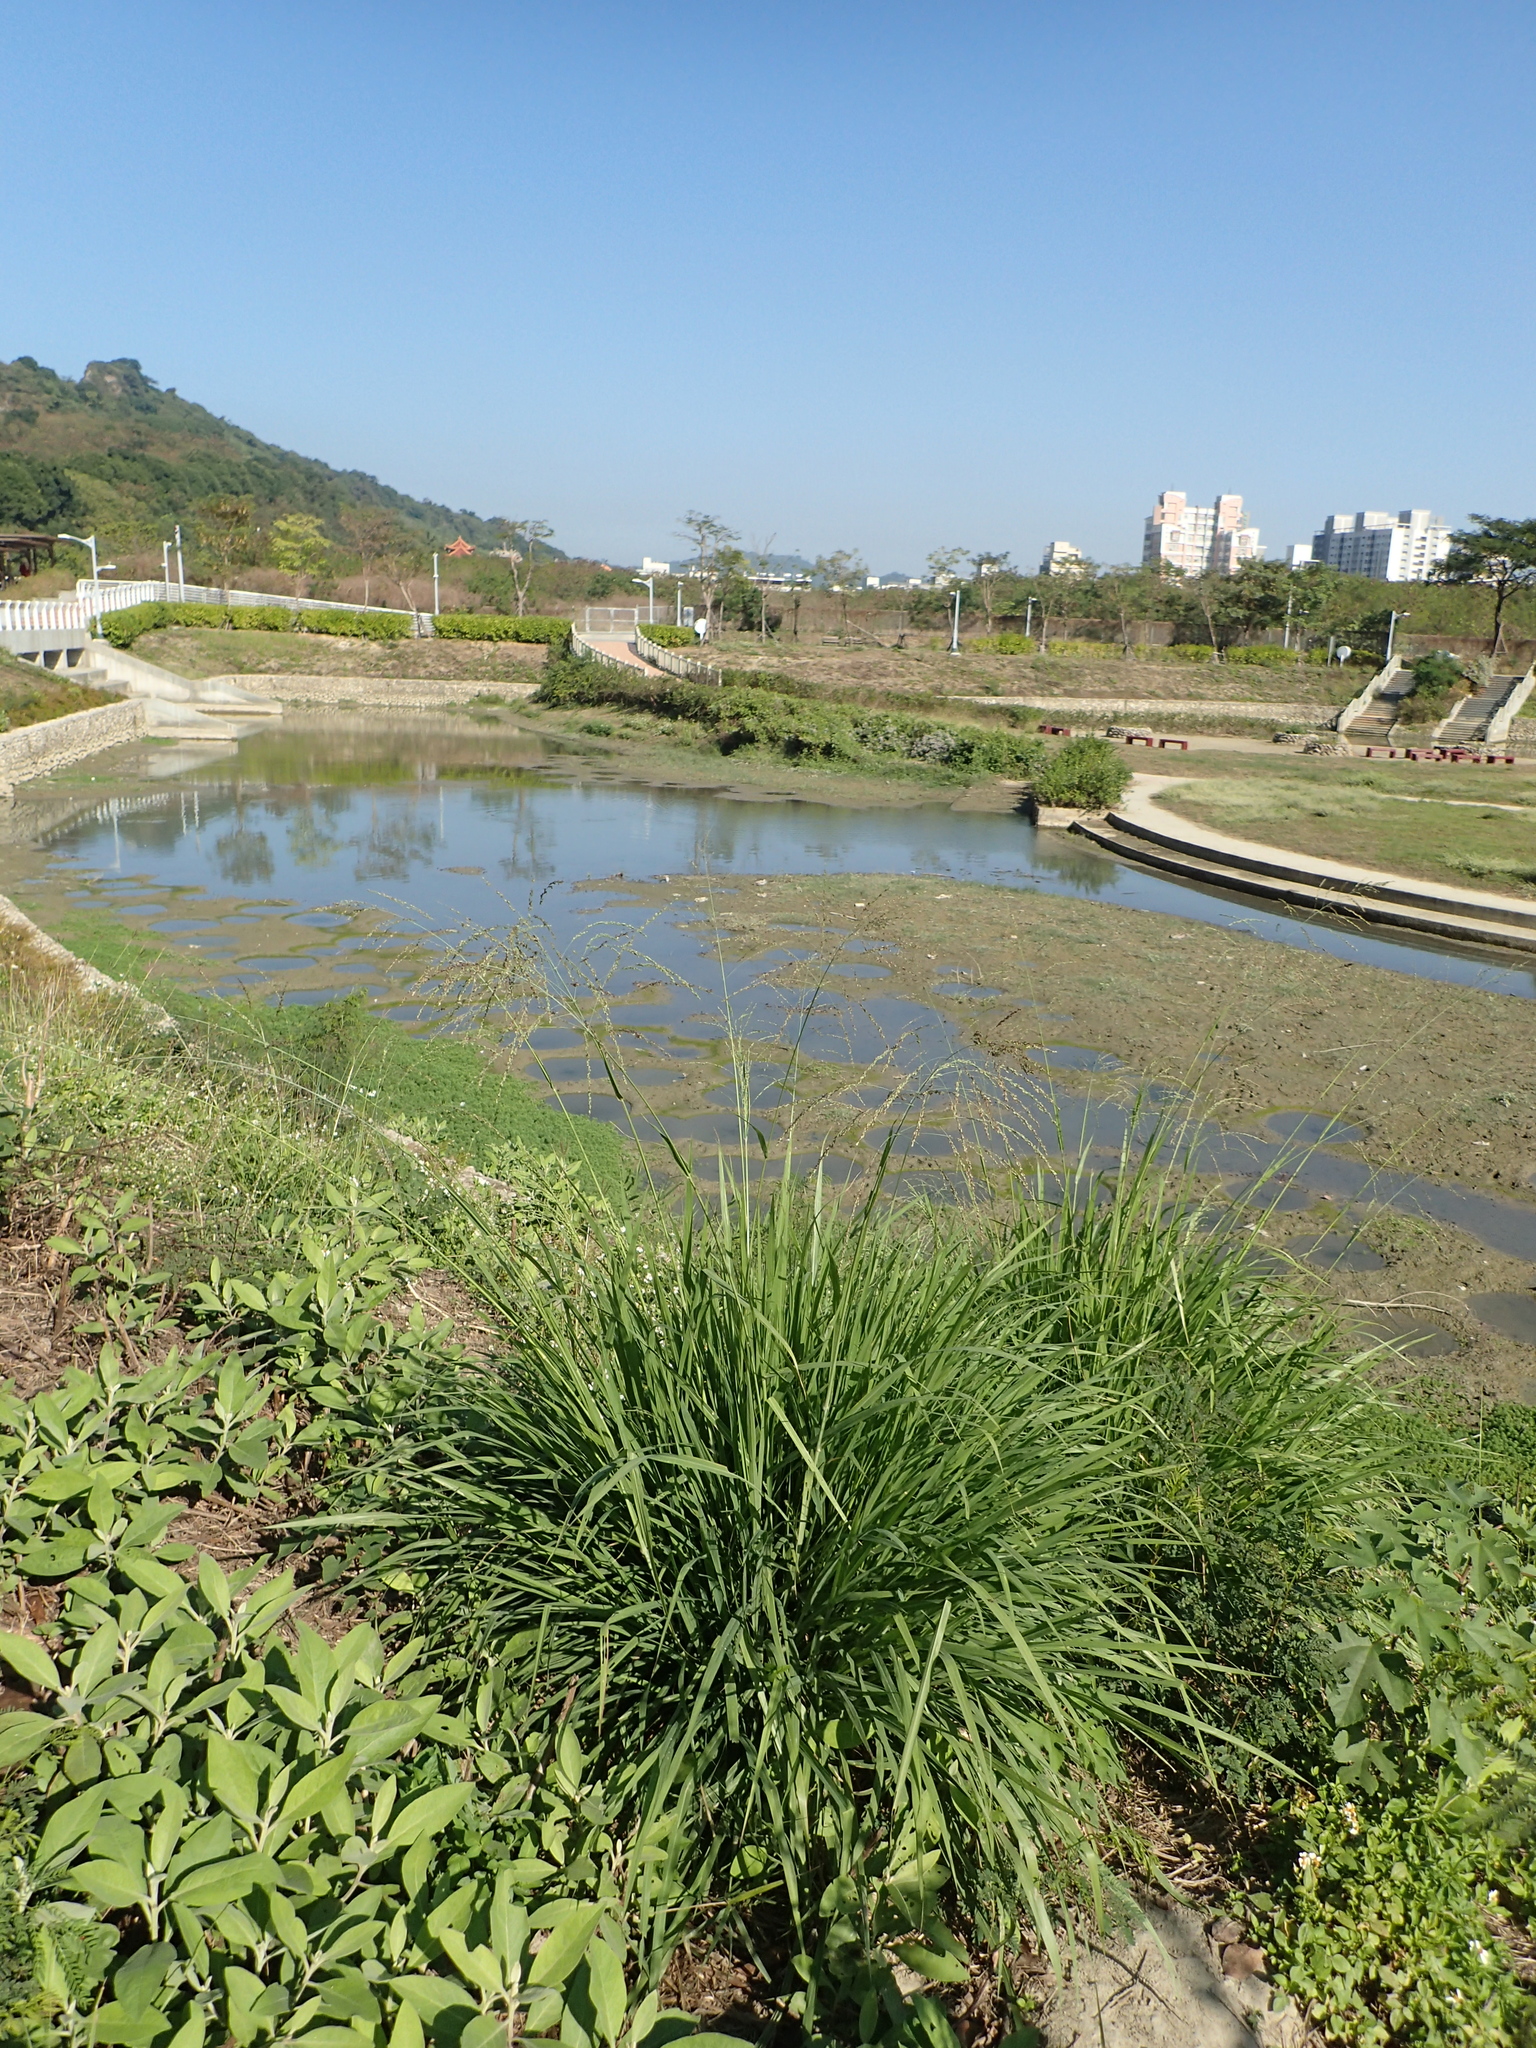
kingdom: Plantae
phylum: Tracheophyta
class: Liliopsida
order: Poales
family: Poaceae
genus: Megathyrsus
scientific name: Megathyrsus maximus
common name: Guineagrass
